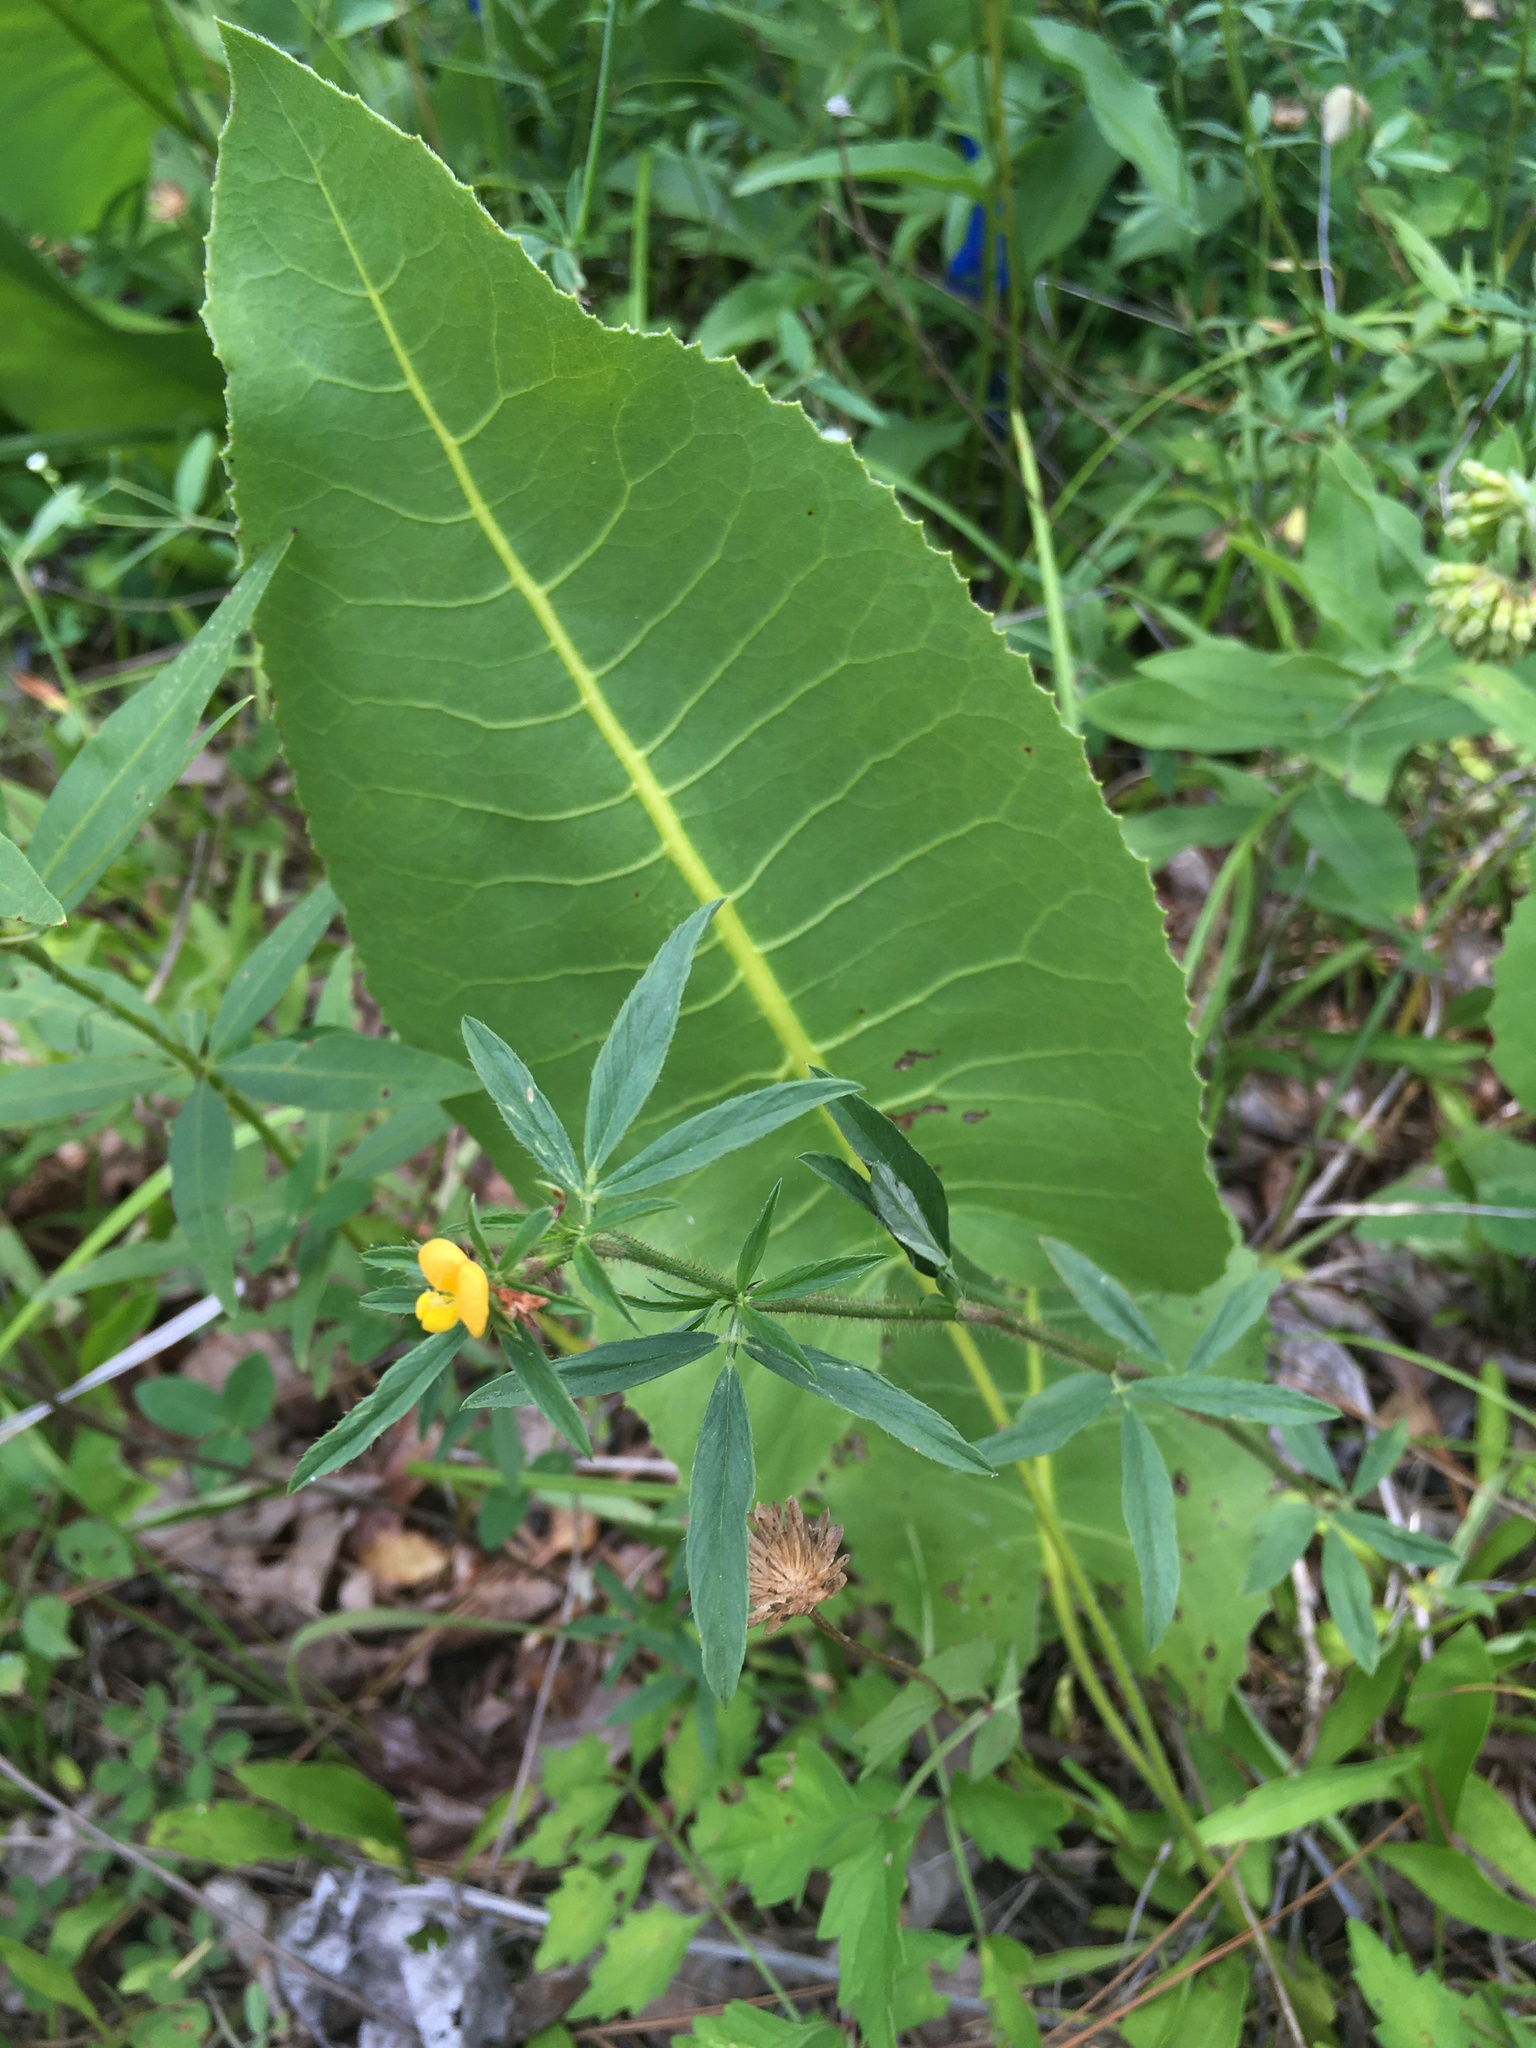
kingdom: Plantae
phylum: Tracheophyta
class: Magnoliopsida
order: Fabales
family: Fabaceae
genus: Stylosanthes
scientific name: Stylosanthes biflora
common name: Two-flower pencil-flower
